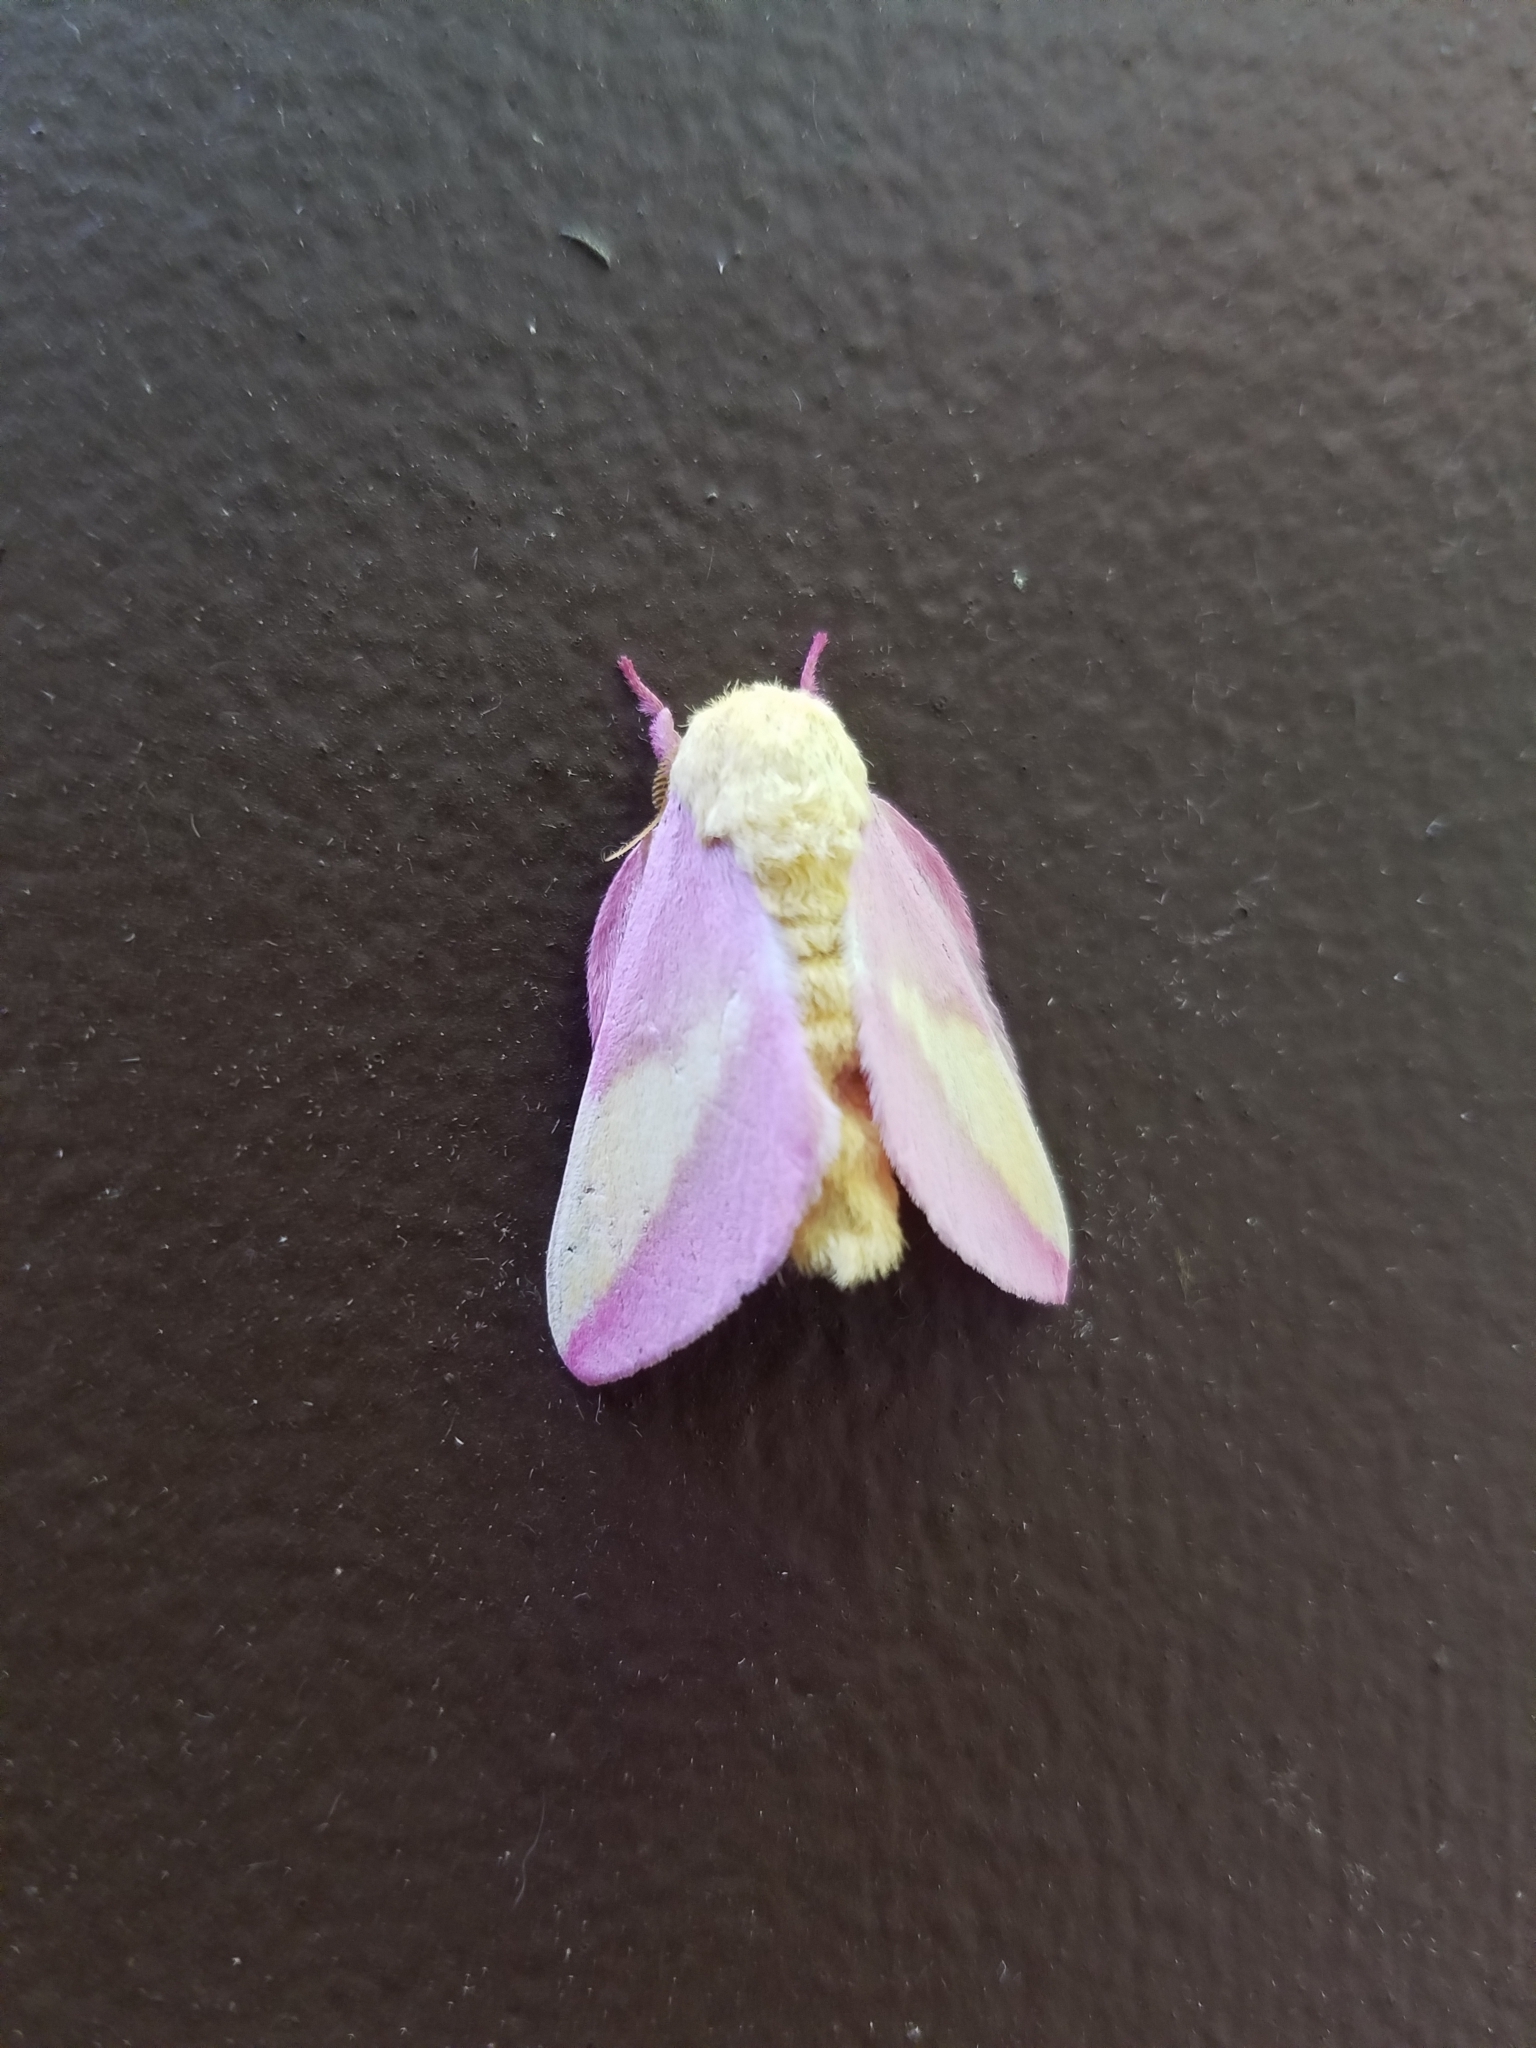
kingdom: Animalia
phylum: Arthropoda
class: Insecta
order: Lepidoptera
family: Saturniidae
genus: Dryocampa
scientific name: Dryocampa rubicunda
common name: Rosy maple moth
